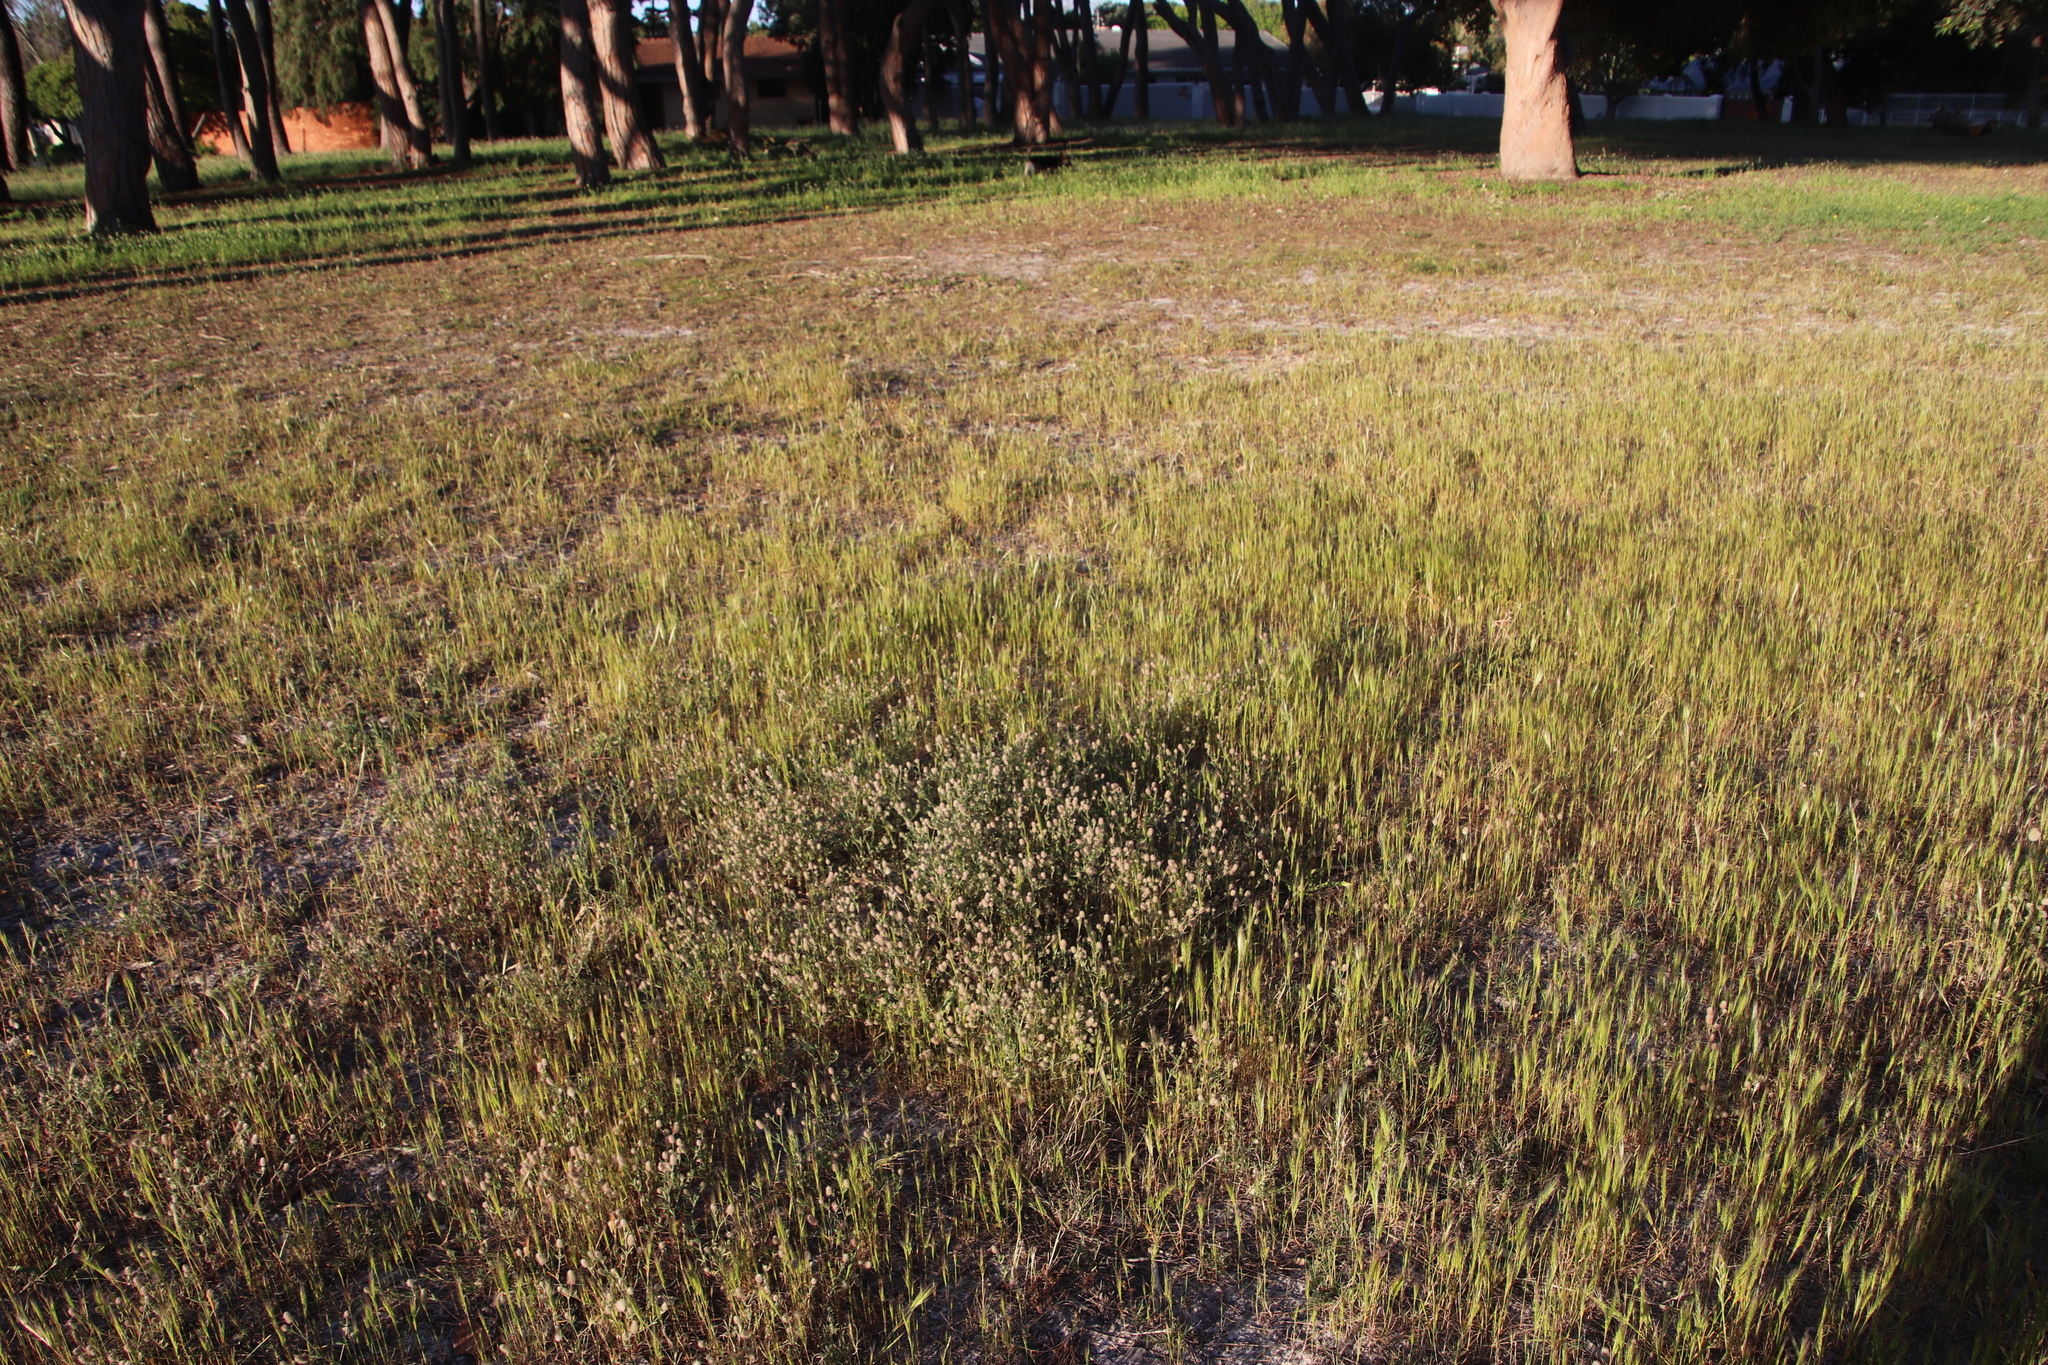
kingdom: Plantae
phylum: Tracheophyta
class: Magnoliopsida
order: Fabales
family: Fabaceae
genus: Trifolium
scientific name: Trifolium arvense
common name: Hare's-foot clover
